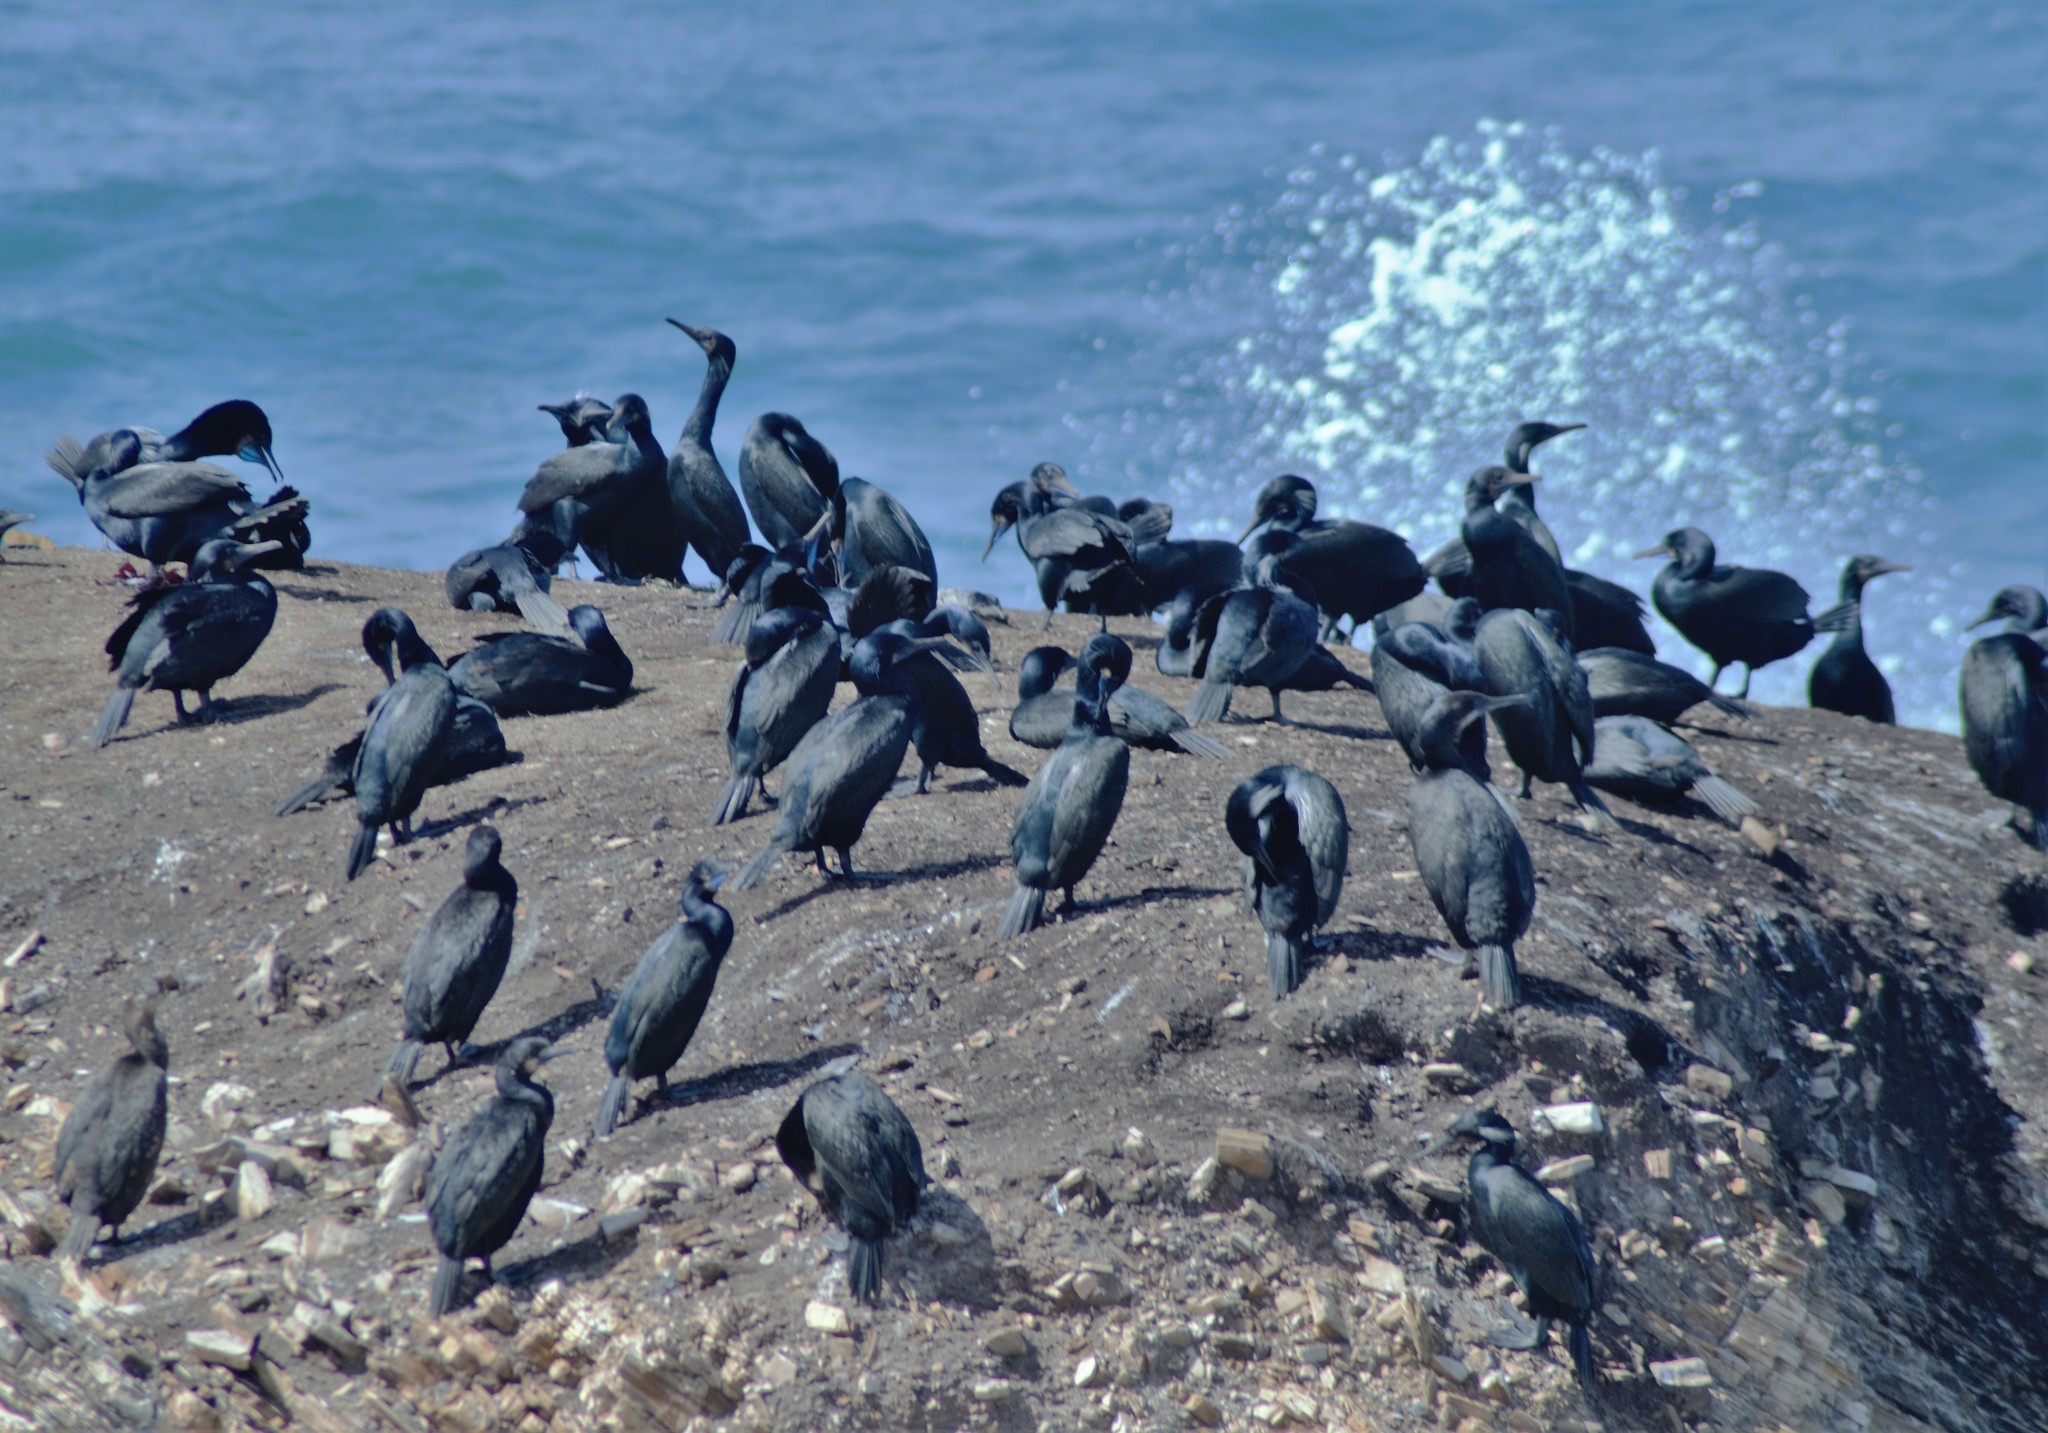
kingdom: Animalia
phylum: Chordata
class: Aves
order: Suliformes
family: Phalacrocoracidae
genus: Urile
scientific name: Urile penicillatus
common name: Brandt's cormorant
